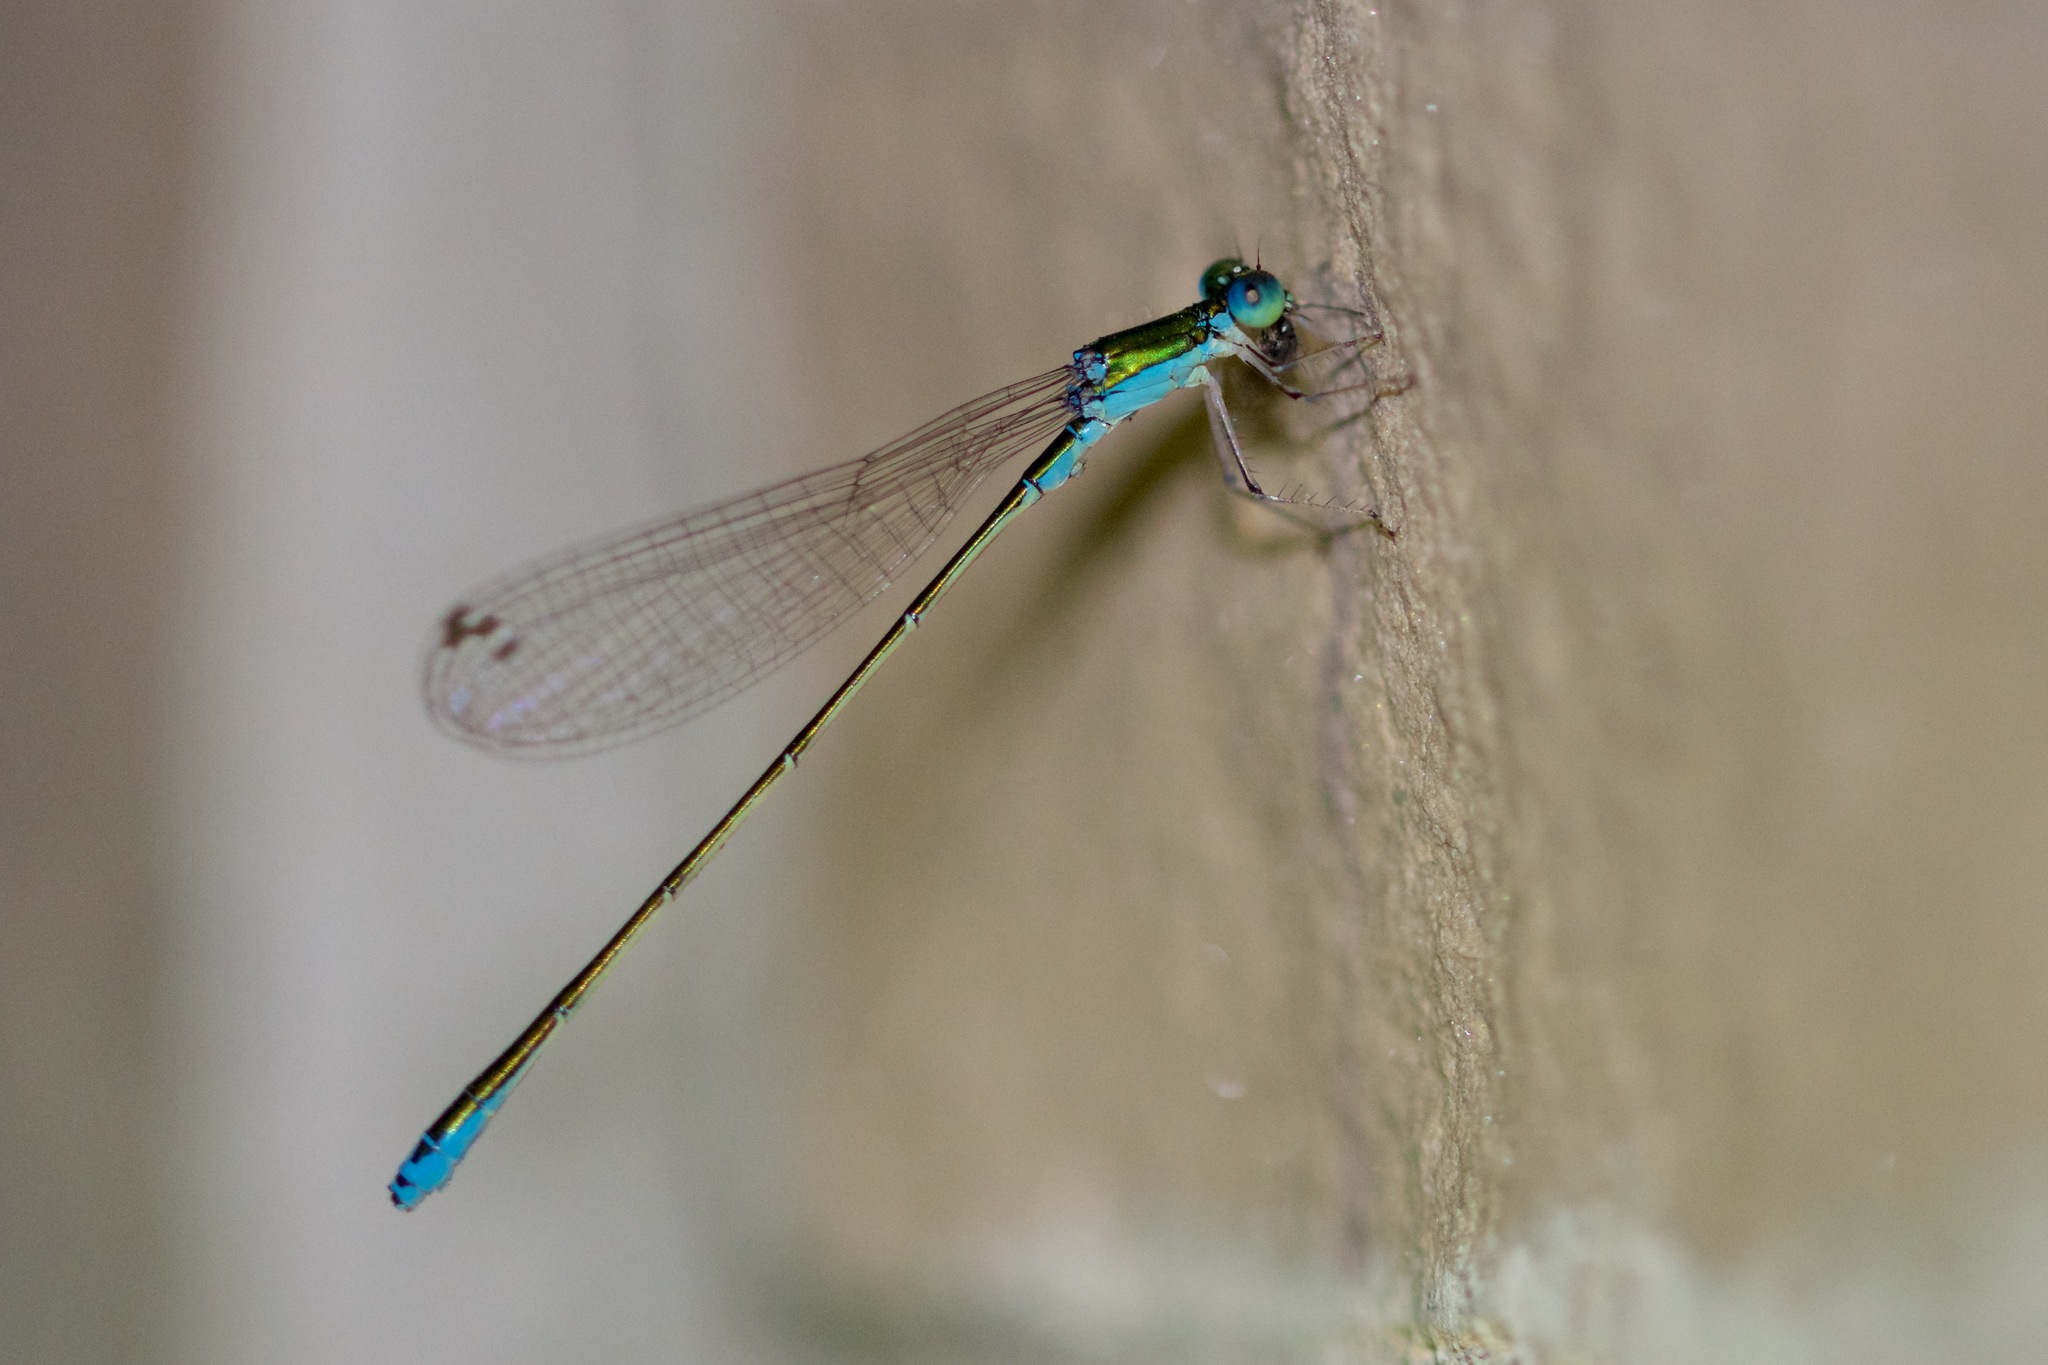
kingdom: Animalia
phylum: Arthropoda
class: Insecta
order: Odonata
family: Coenagrionidae
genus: Nehalennia
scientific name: Nehalennia irene
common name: Sedge sprite
